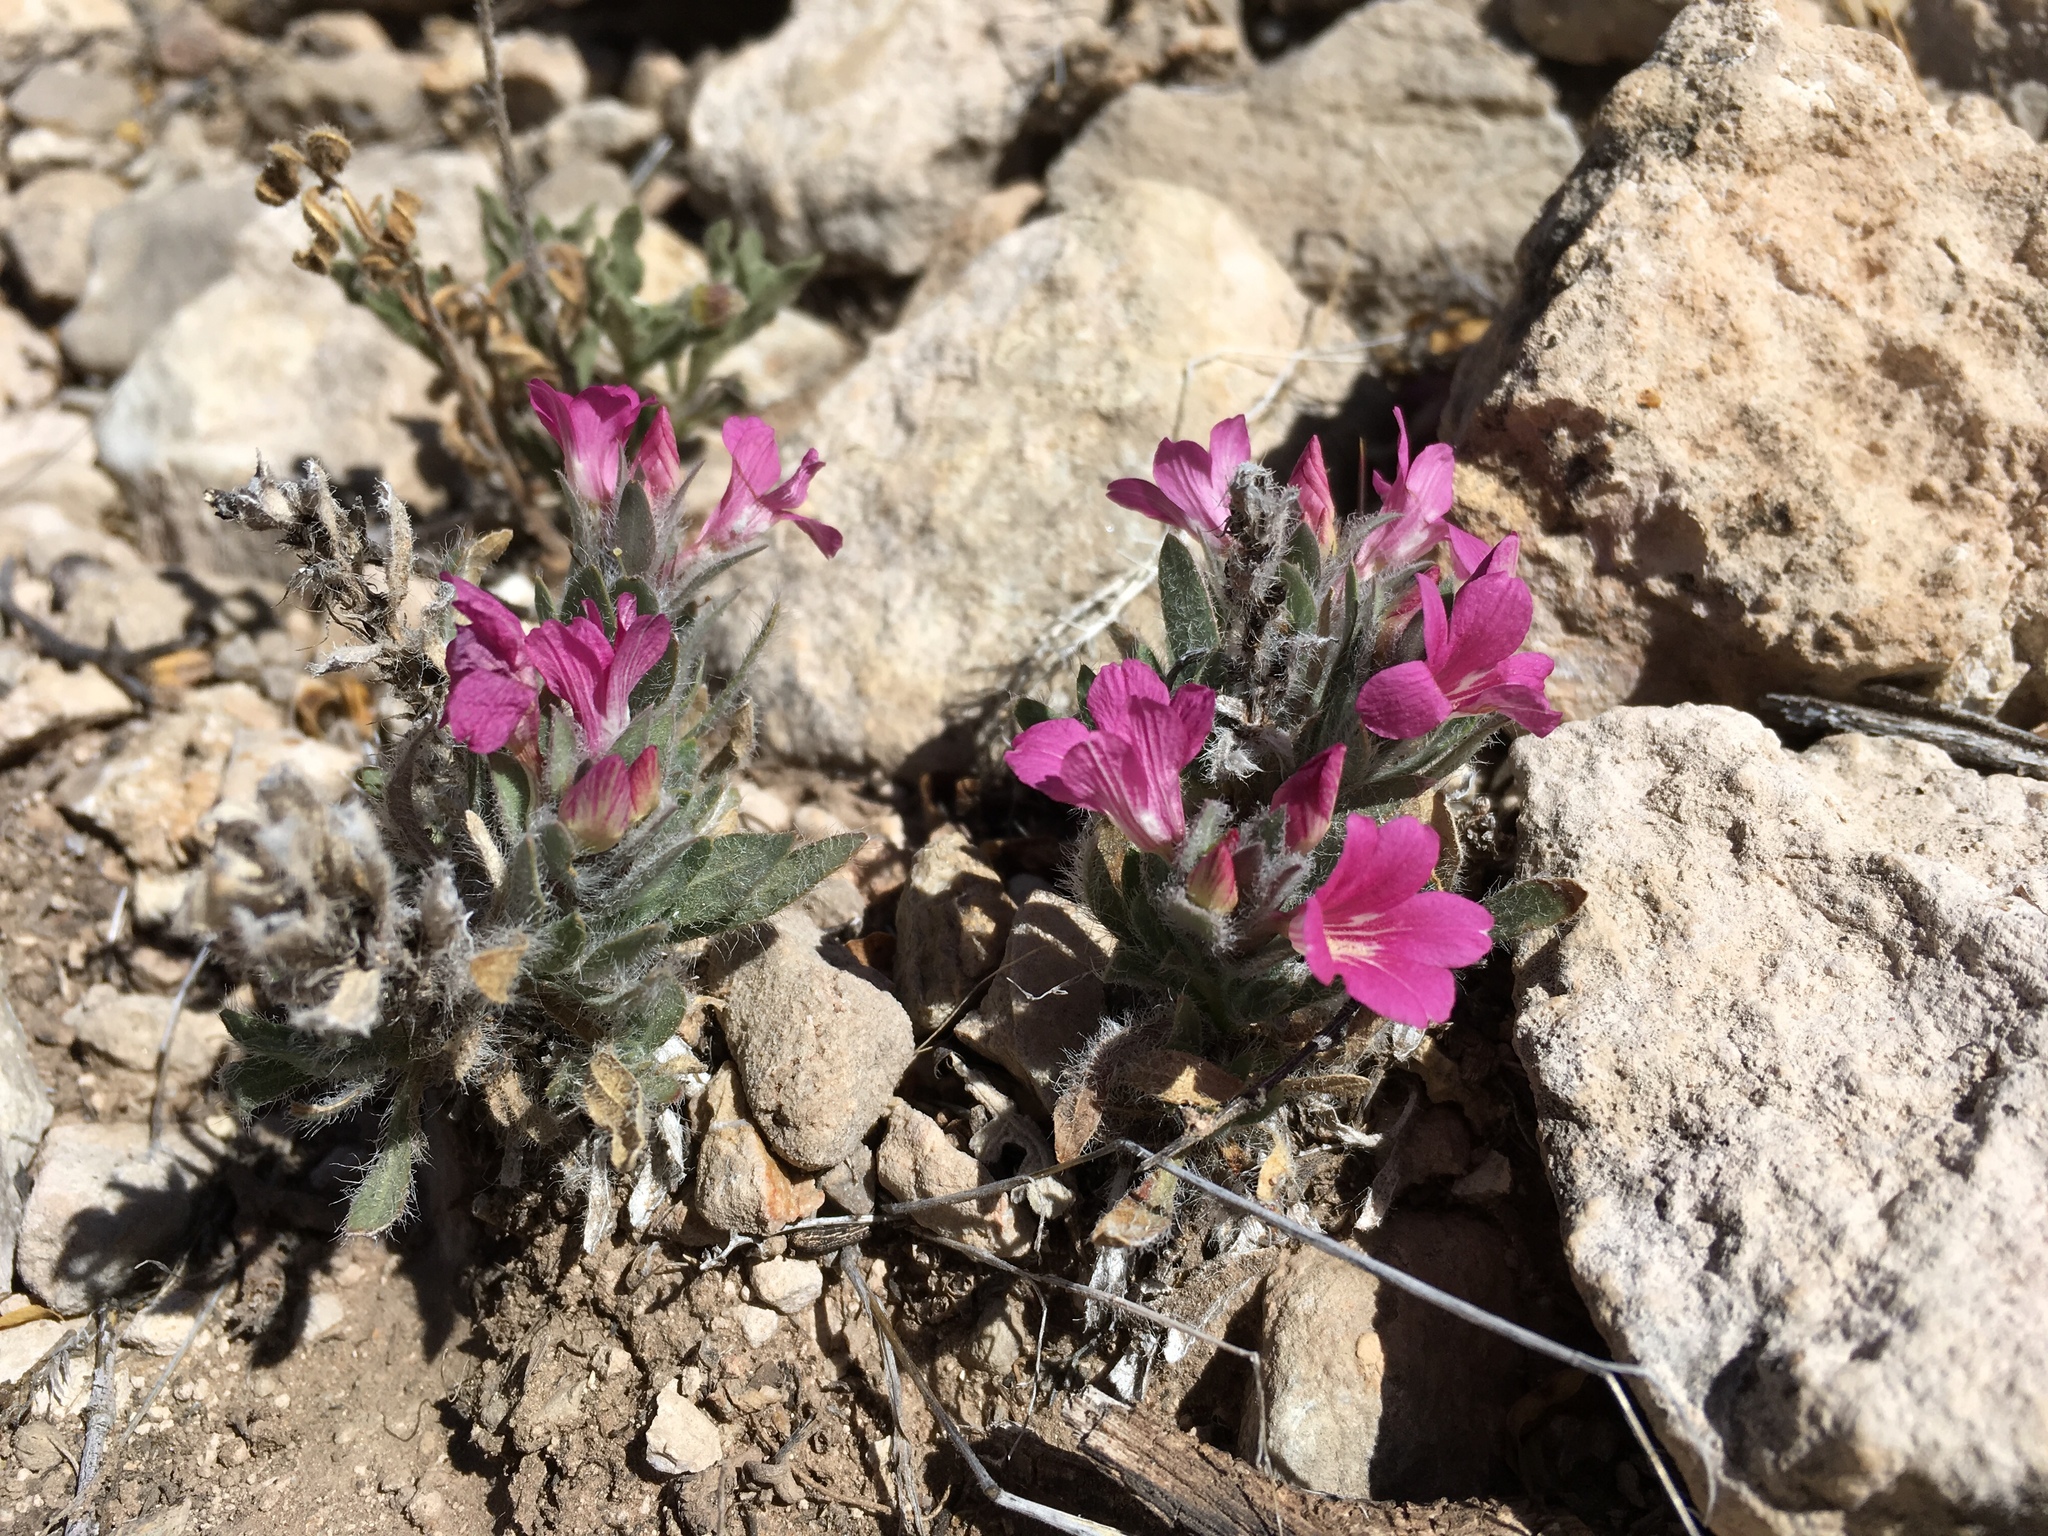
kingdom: Plantae
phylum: Tracheophyta
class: Magnoliopsida
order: Lamiales
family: Acanthaceae
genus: Stenandrium
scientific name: Stenandrium barbatum
